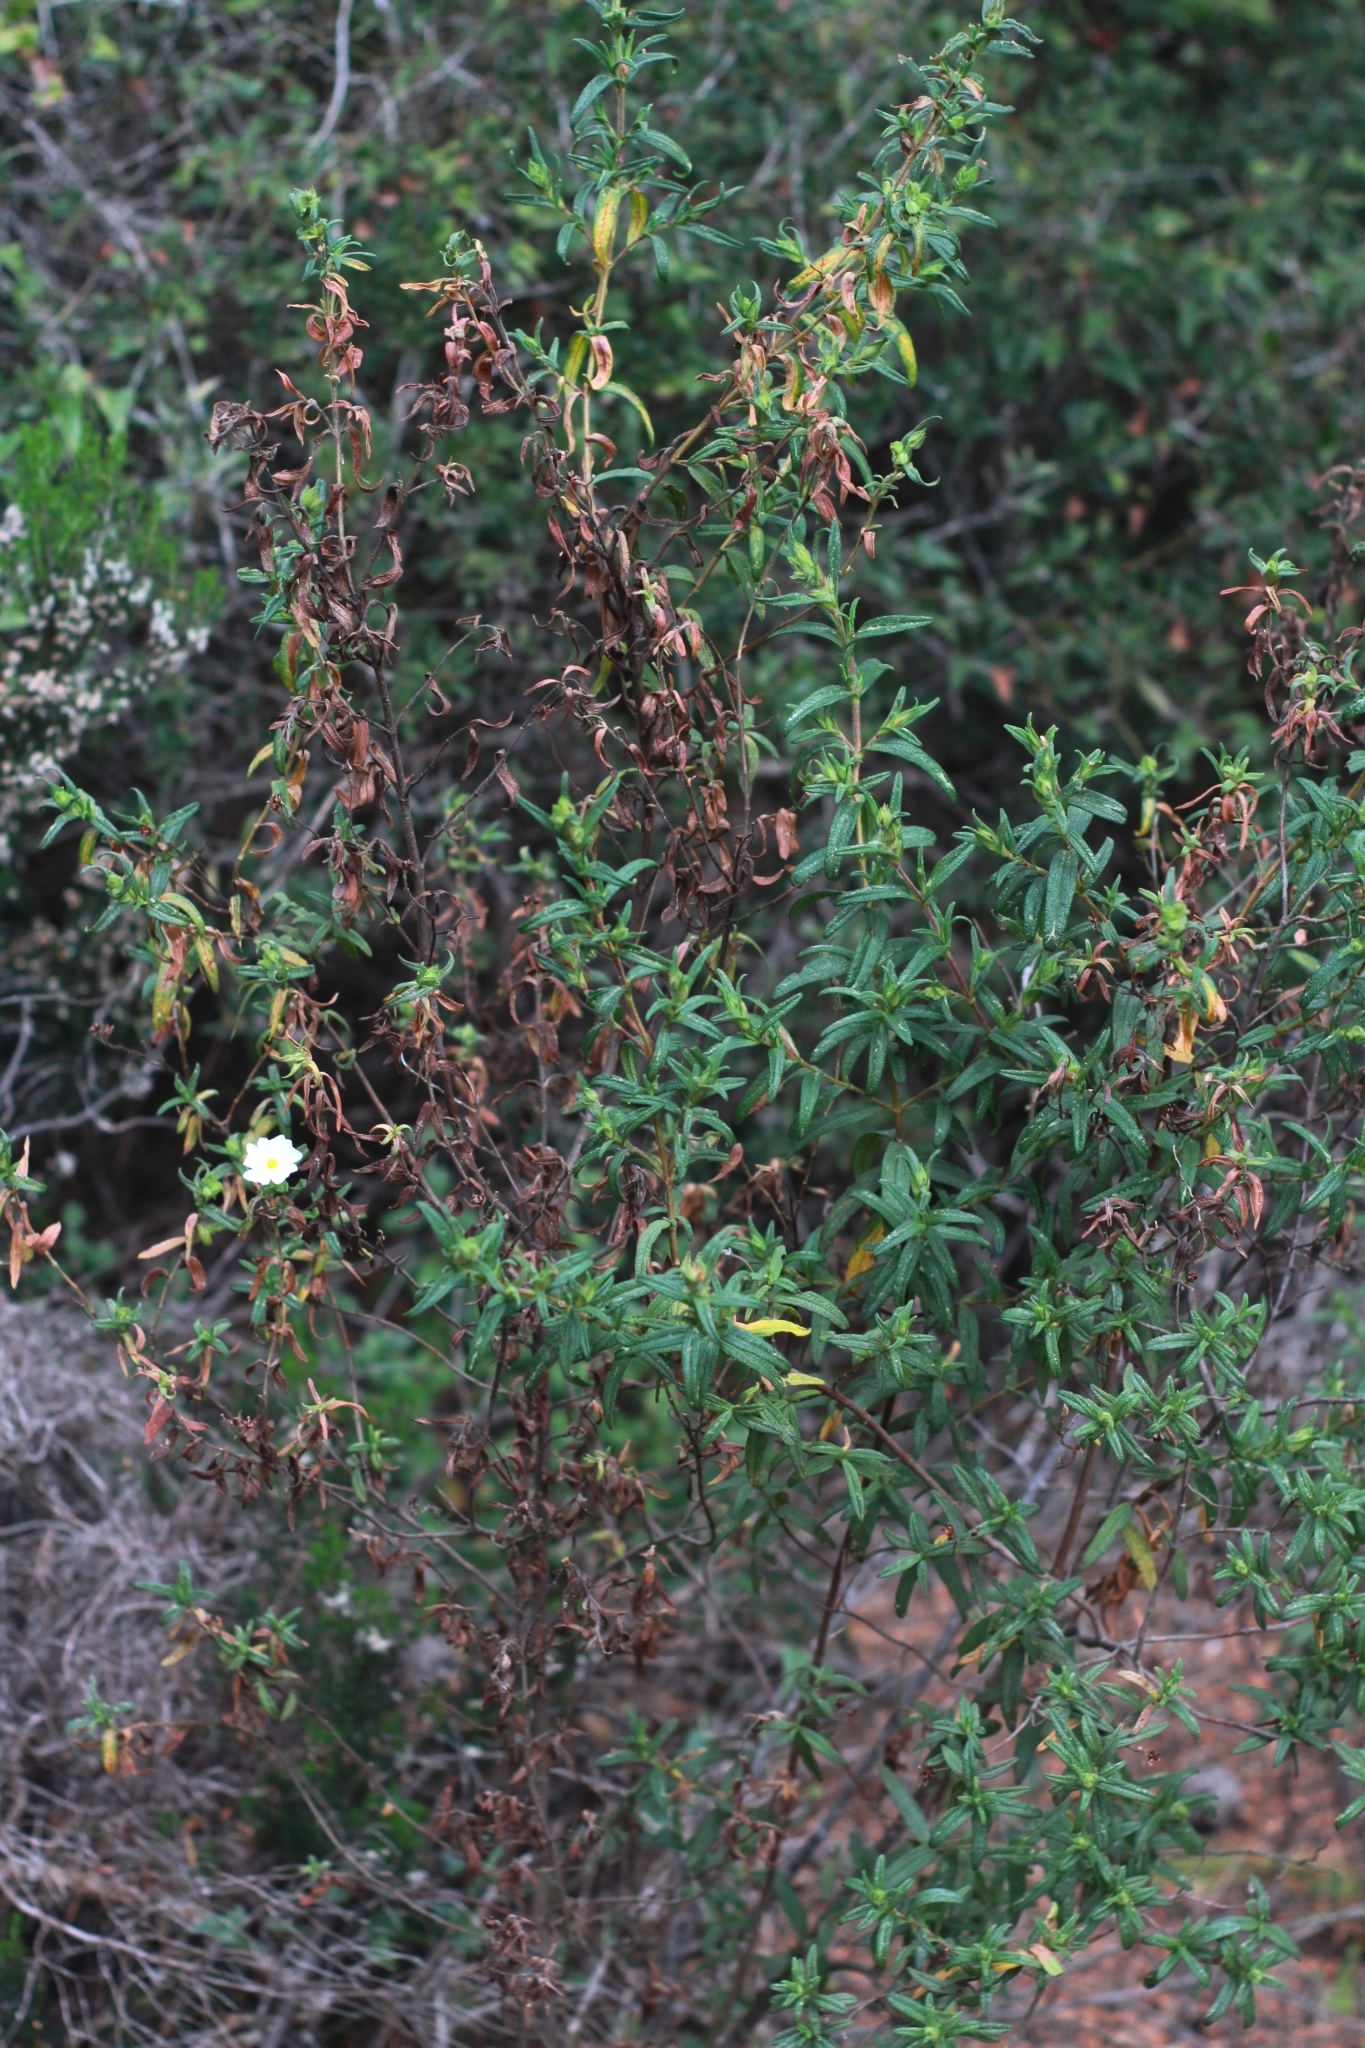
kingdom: Plantae
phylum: Tracheophyta
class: Magnoliopsida
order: Malvales
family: Cistaceae
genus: Cistus
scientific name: Cistus monspeliensis
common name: Montpelier cistus
